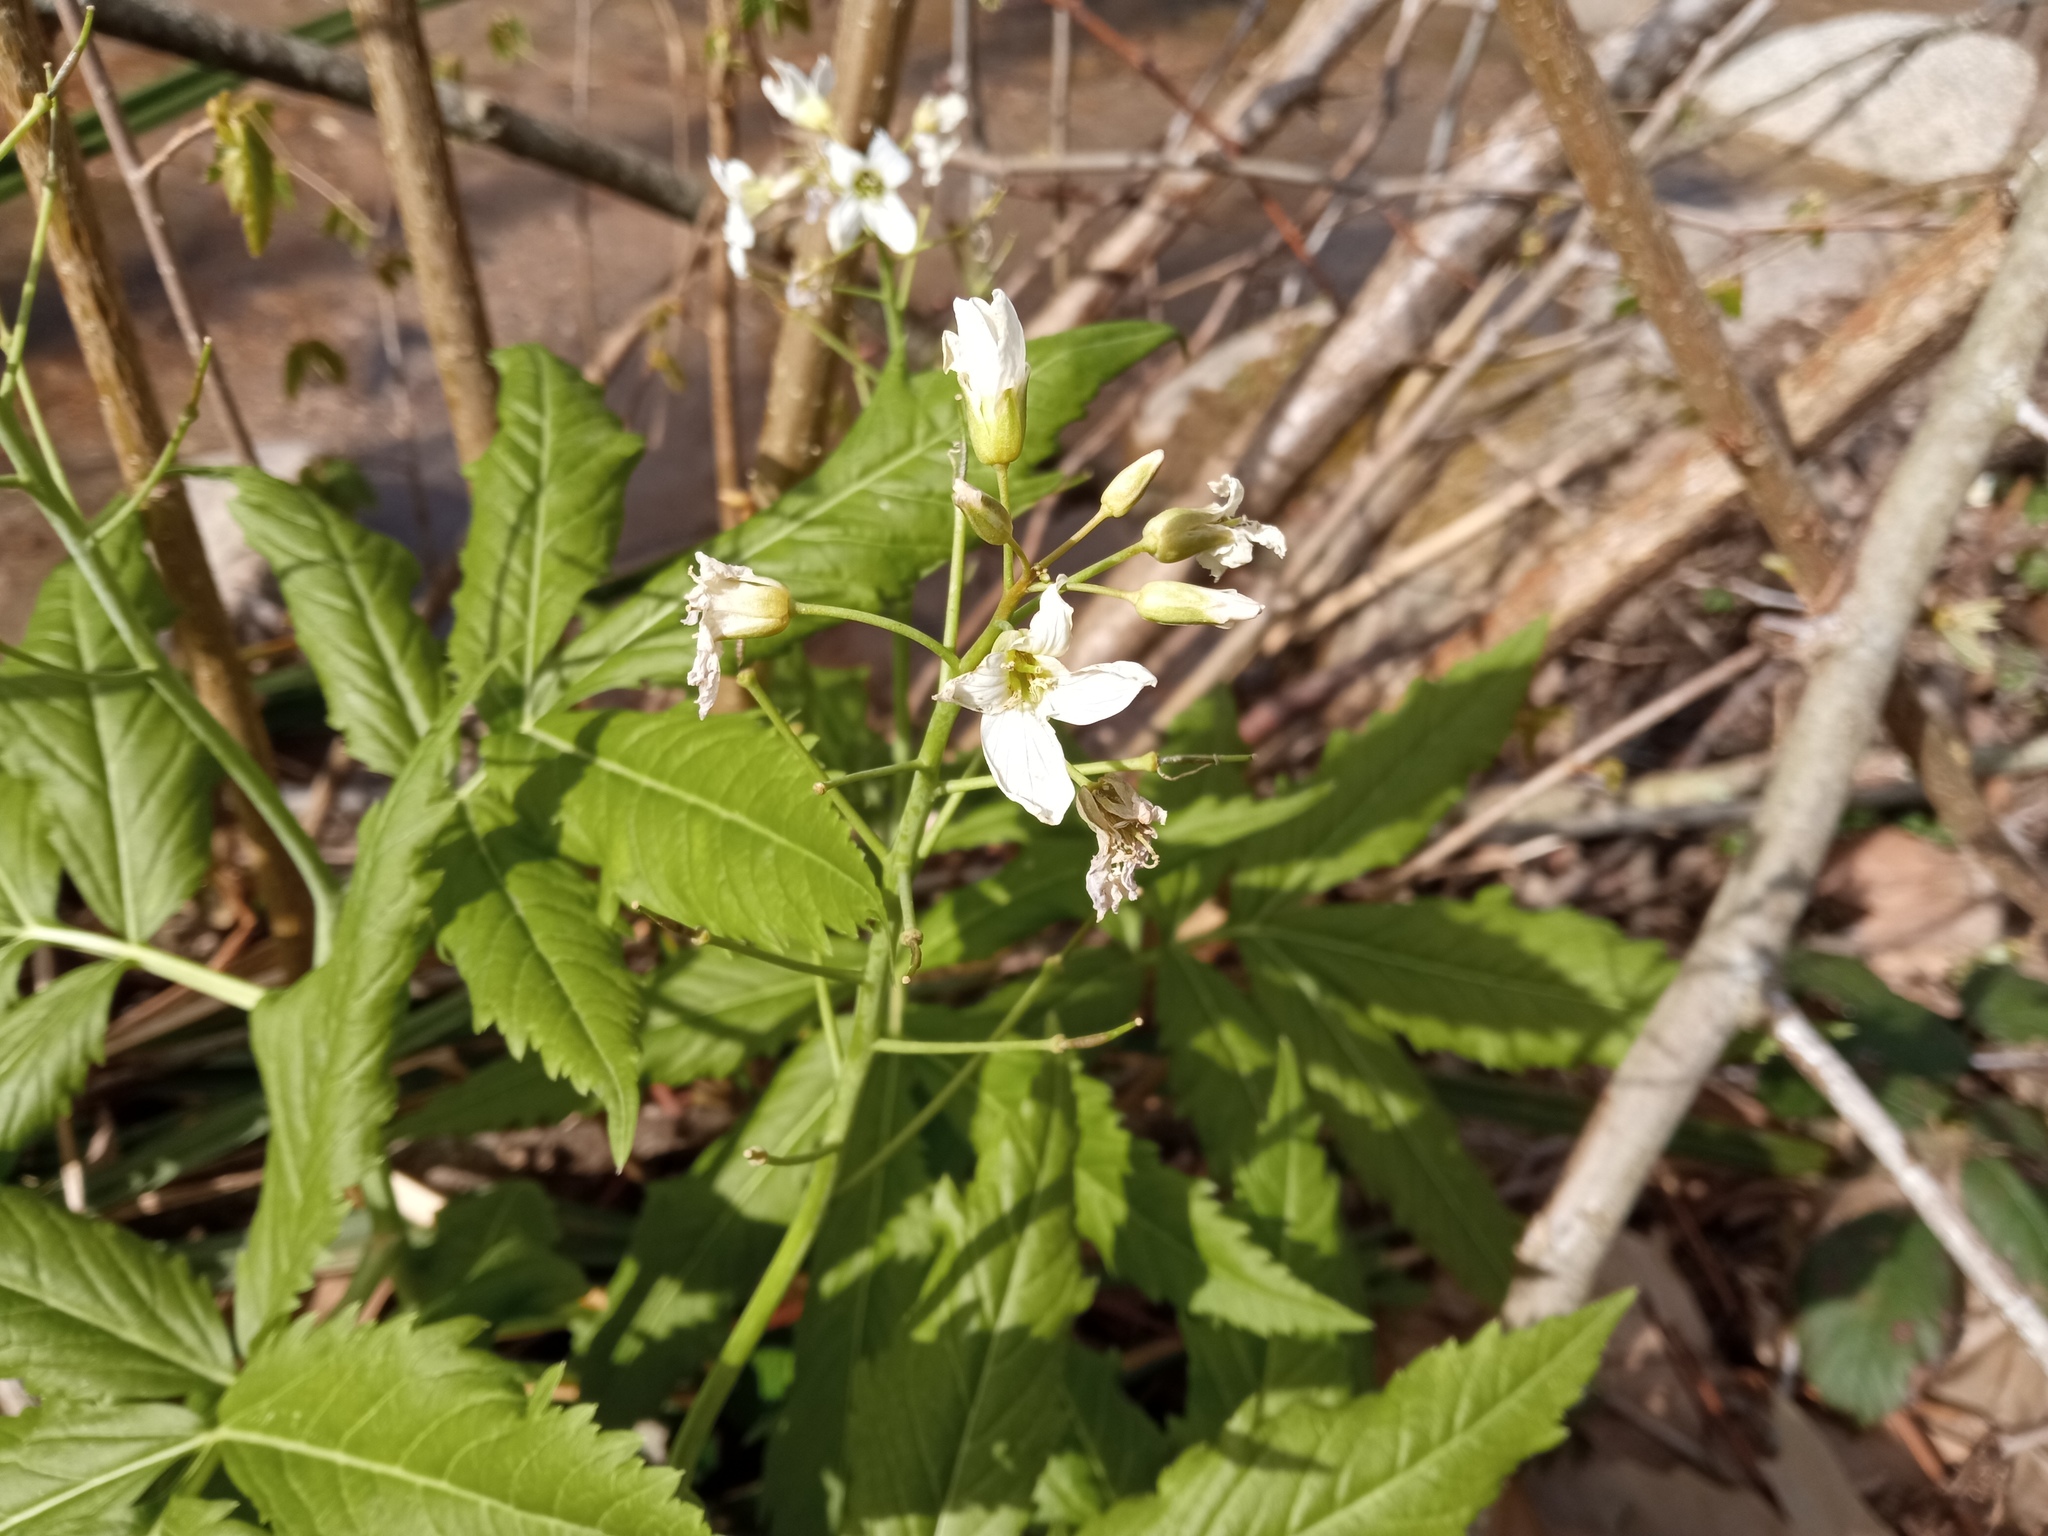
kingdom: Plantae
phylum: Tracheophyta
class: Magnoliopsida
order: Brassicales
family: Brassicaceae
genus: Cardamine
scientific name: Cardamine heptaphylla
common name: Pinnate coralroot
